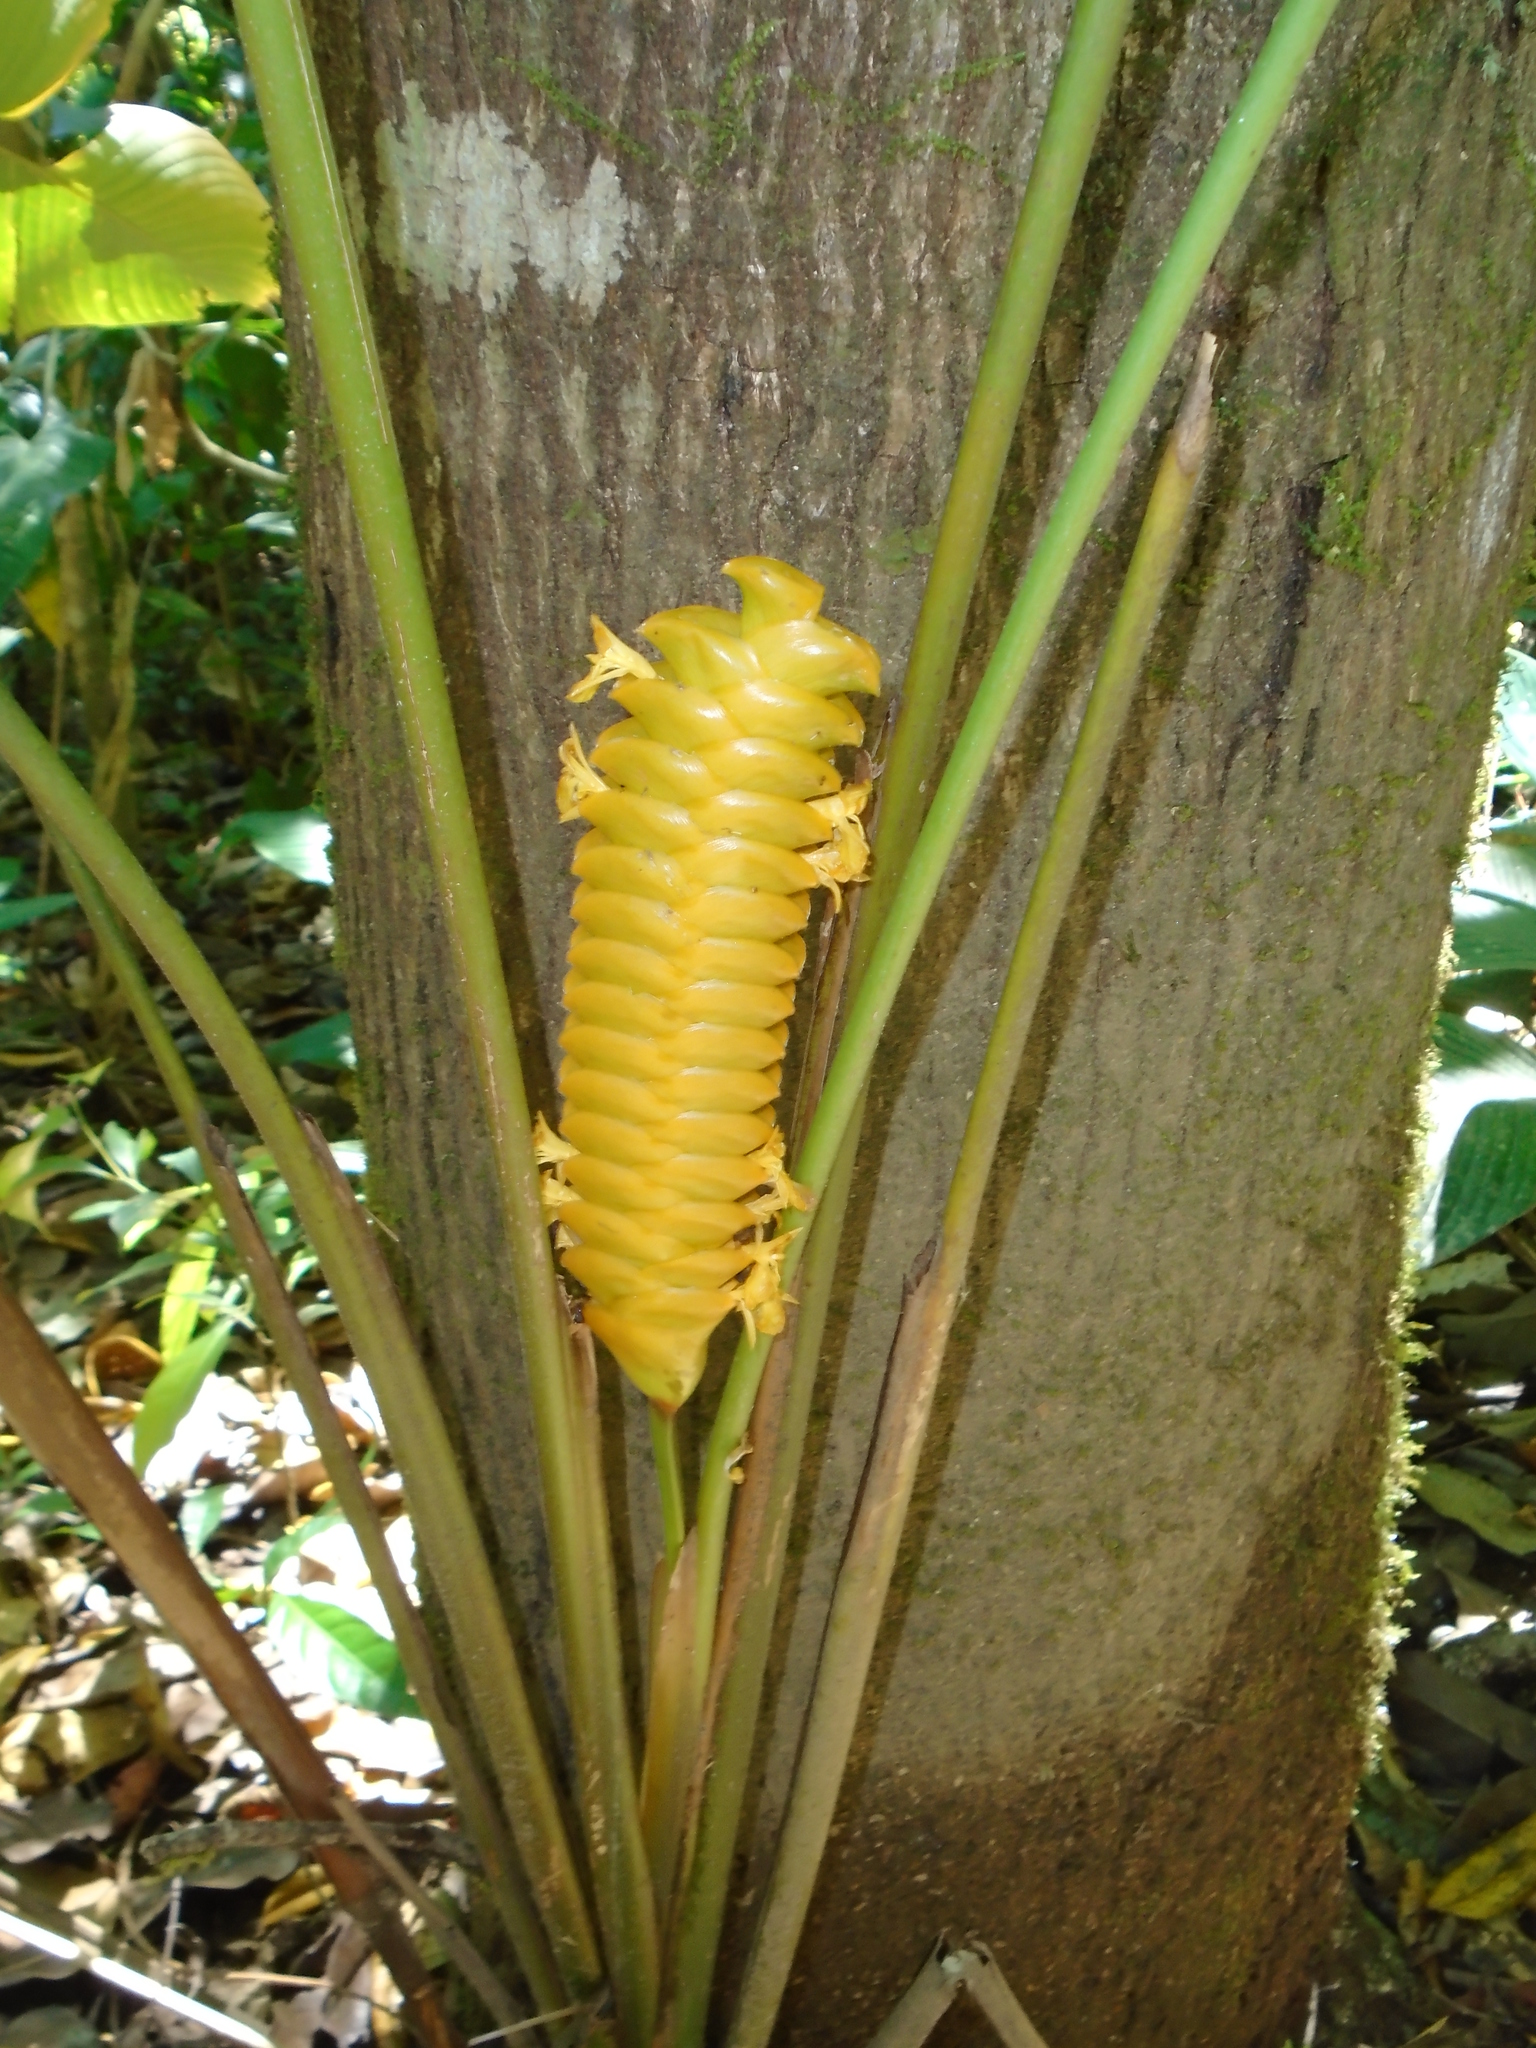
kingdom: Plantae
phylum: Tracheophyta
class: Liliopsida
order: Zingiberales
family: Marantaceae
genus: Calathea
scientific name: Calathea crotalifera
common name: Rattlesnake plant
